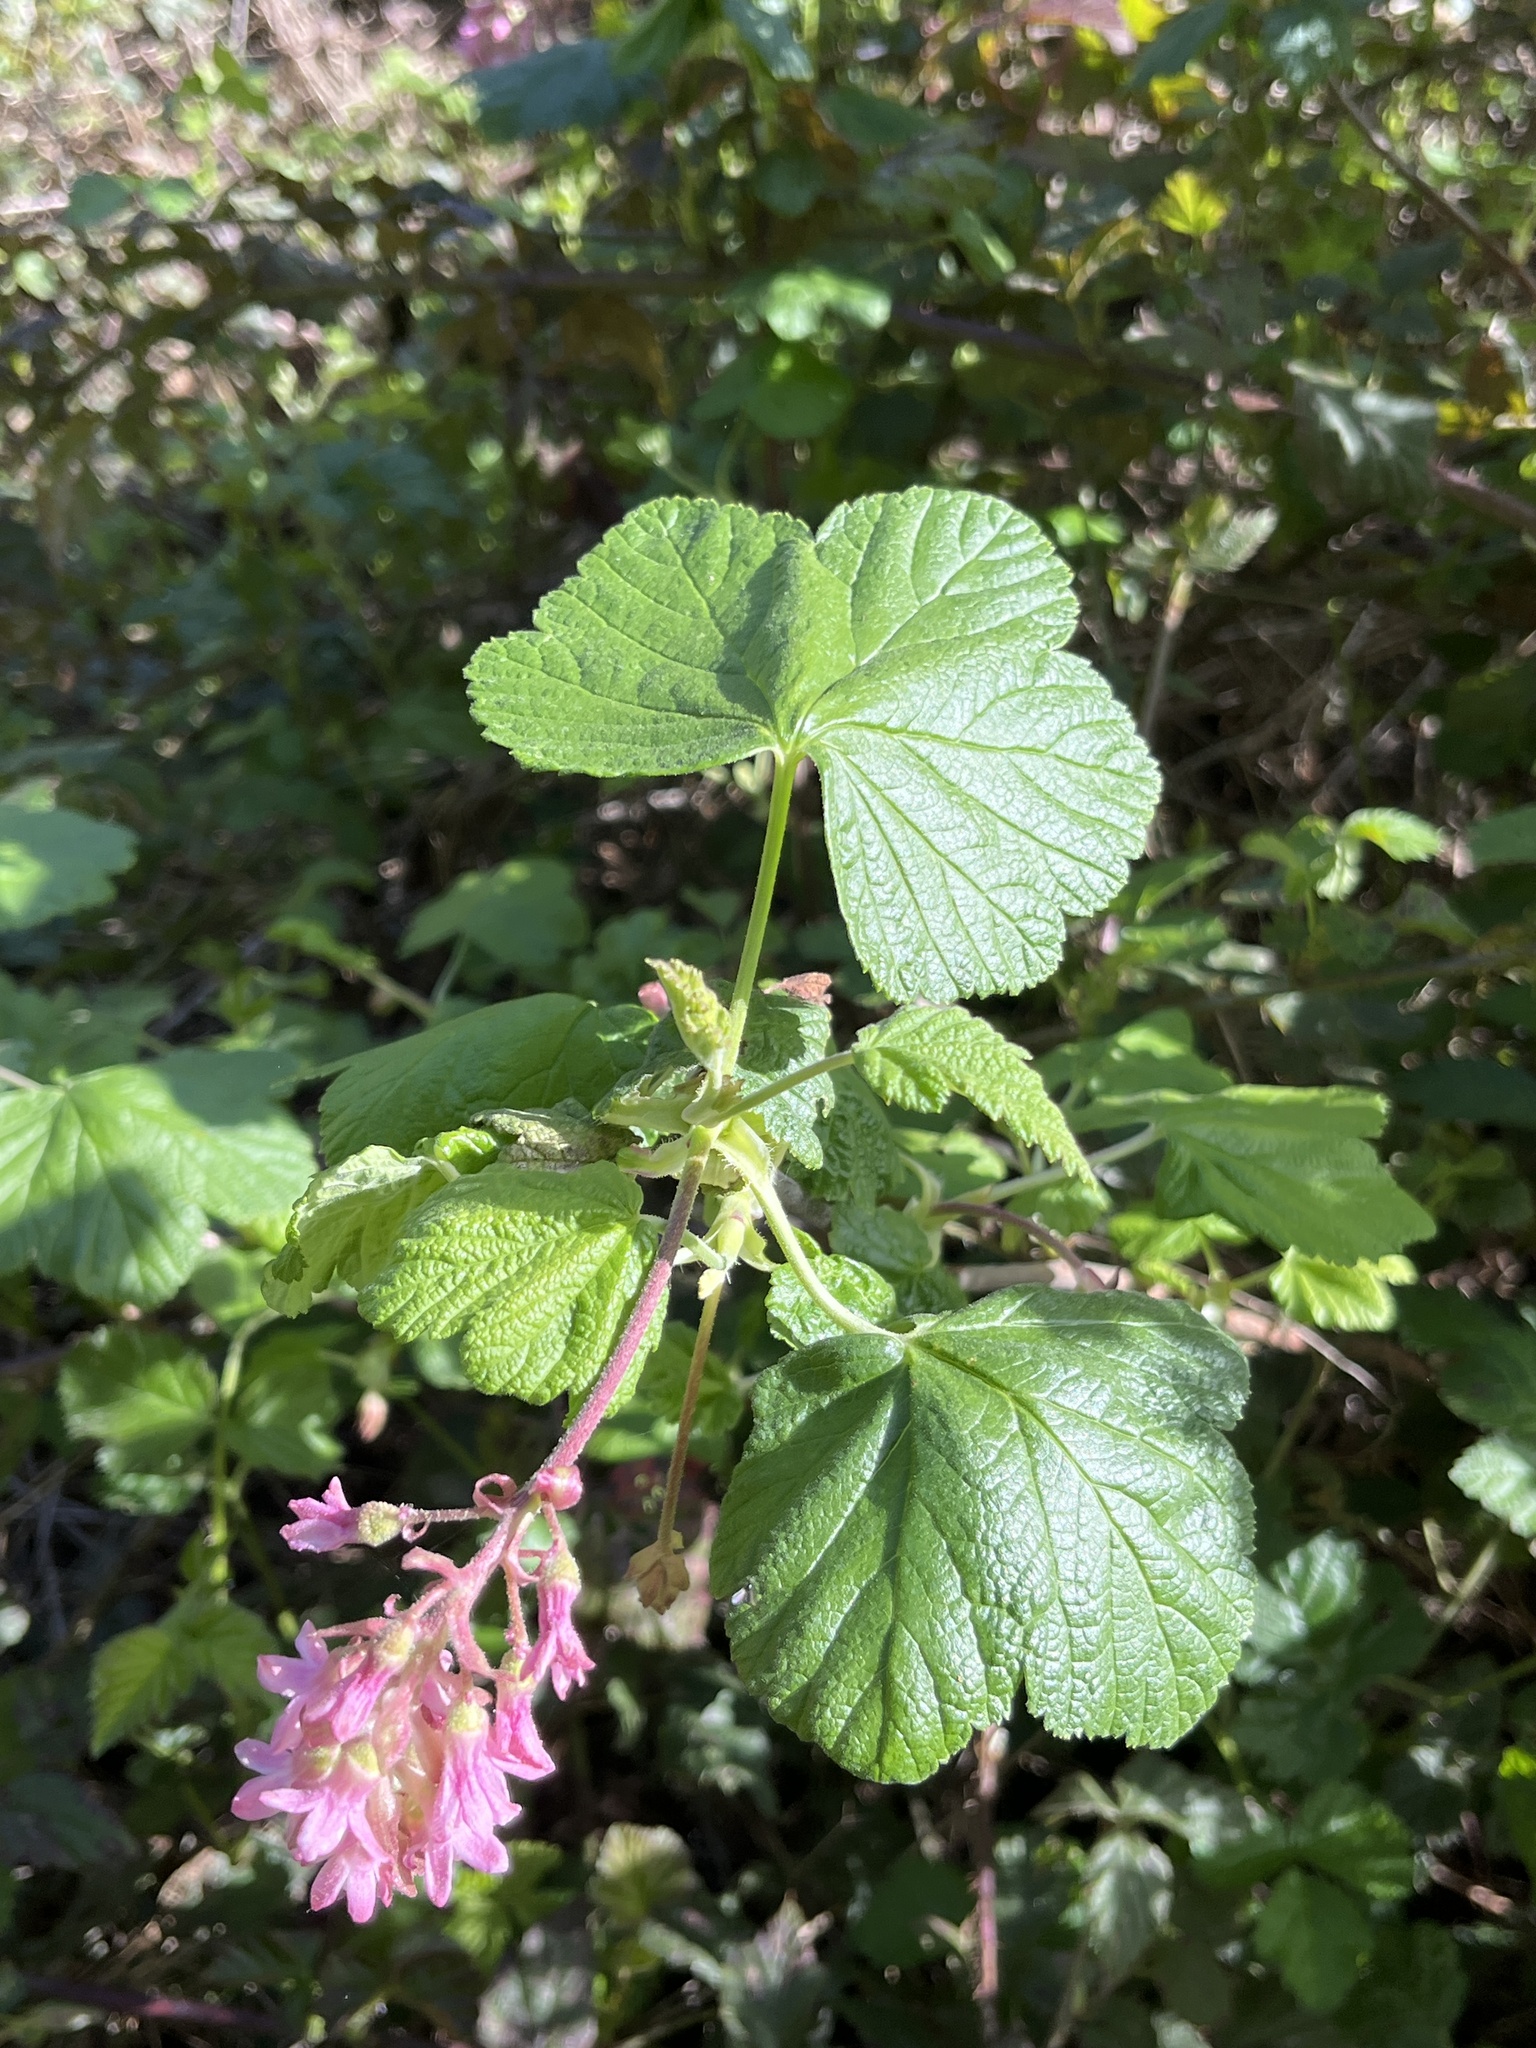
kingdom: Plantae
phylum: Tracheophyta
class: Magnoliopsida
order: Saxifragales
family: Grossulariaceae
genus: Ribes
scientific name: Ribes sanguineum
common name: Flowering currant
